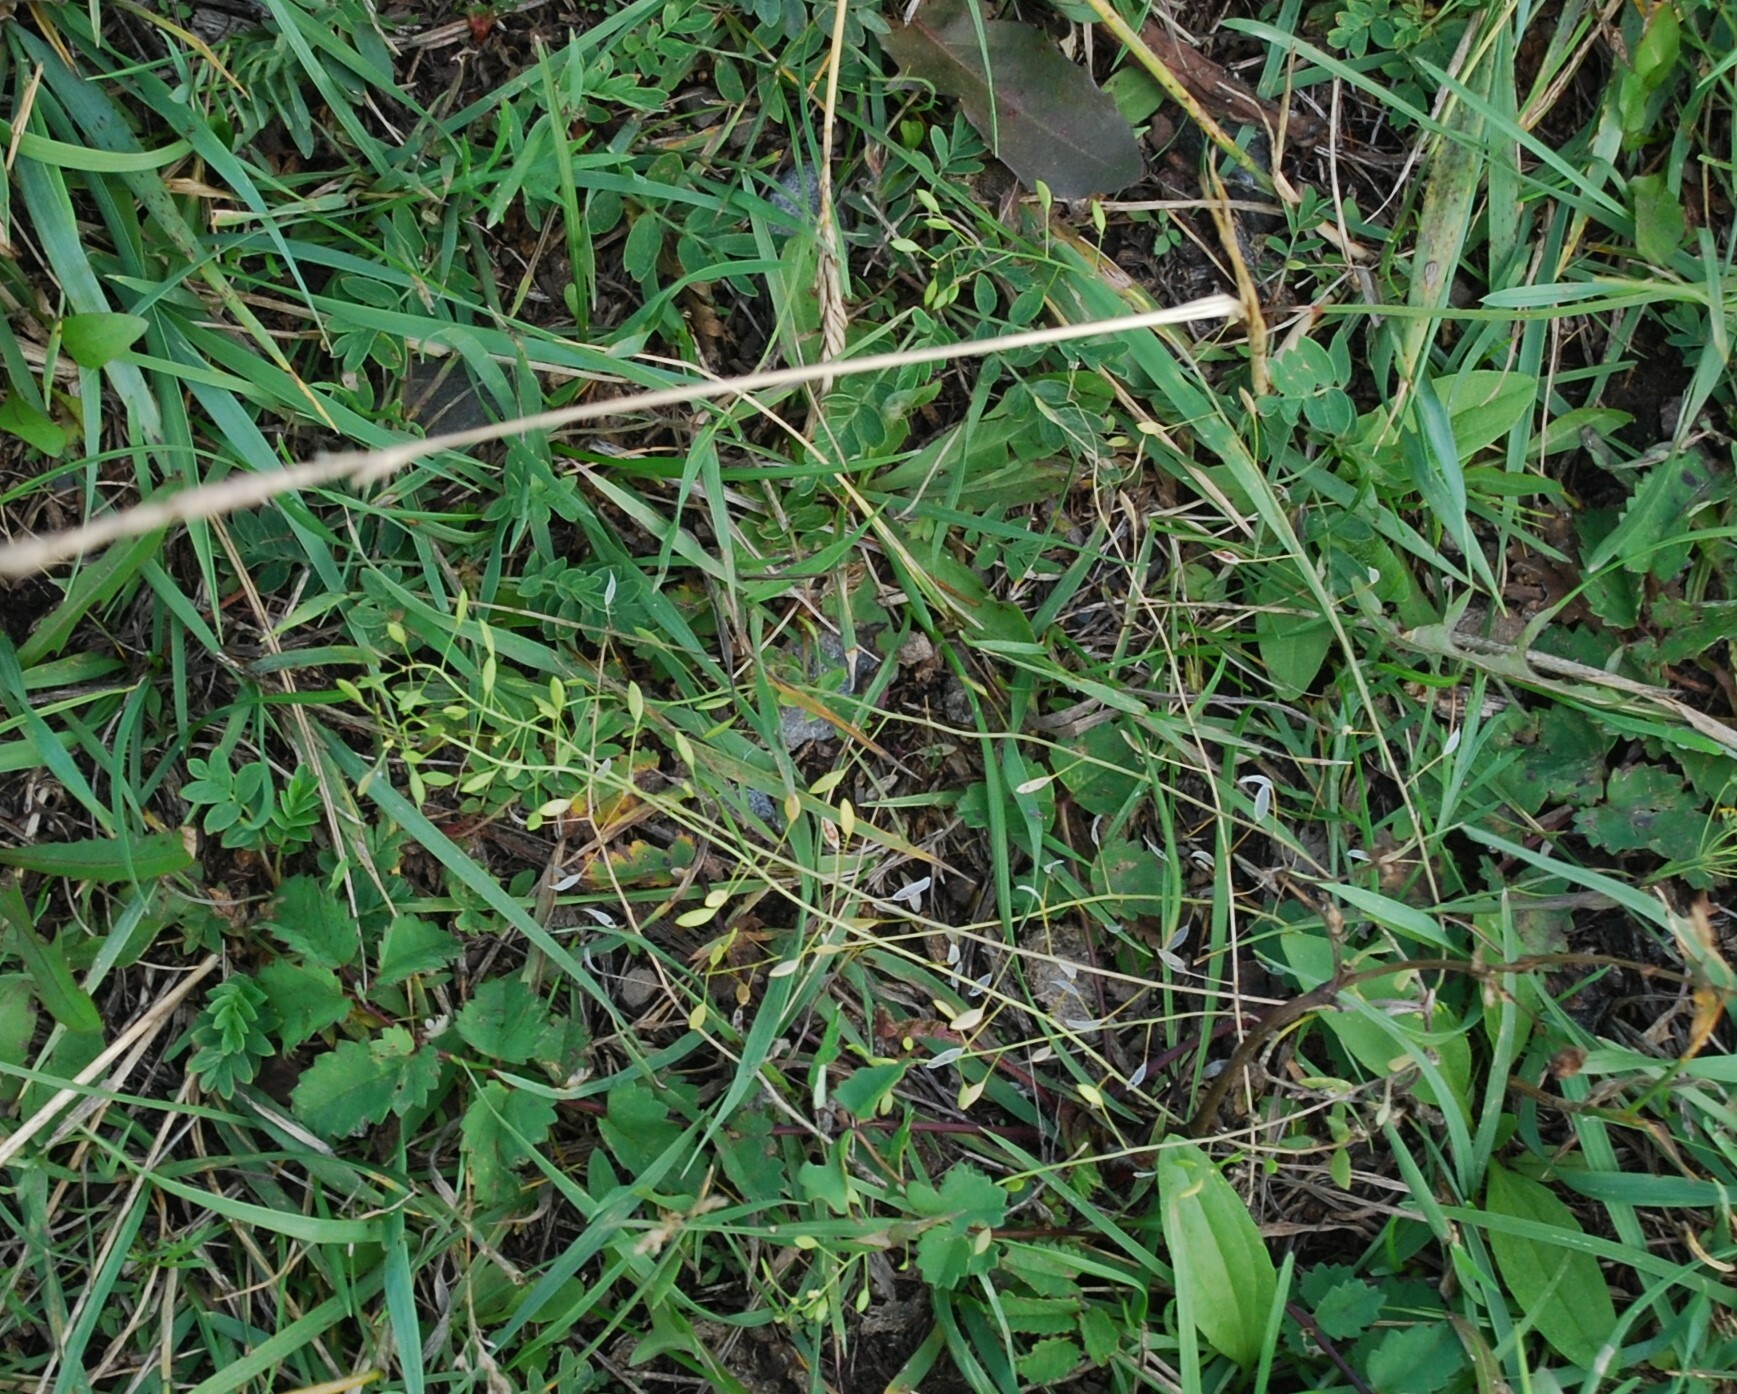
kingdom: Plantae
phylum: Tracheophyta
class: Magnoliopsida
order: Brassicales
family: Brassicaceae
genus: Draba
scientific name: Draba nemorosa
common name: Wood whitlow-grass
